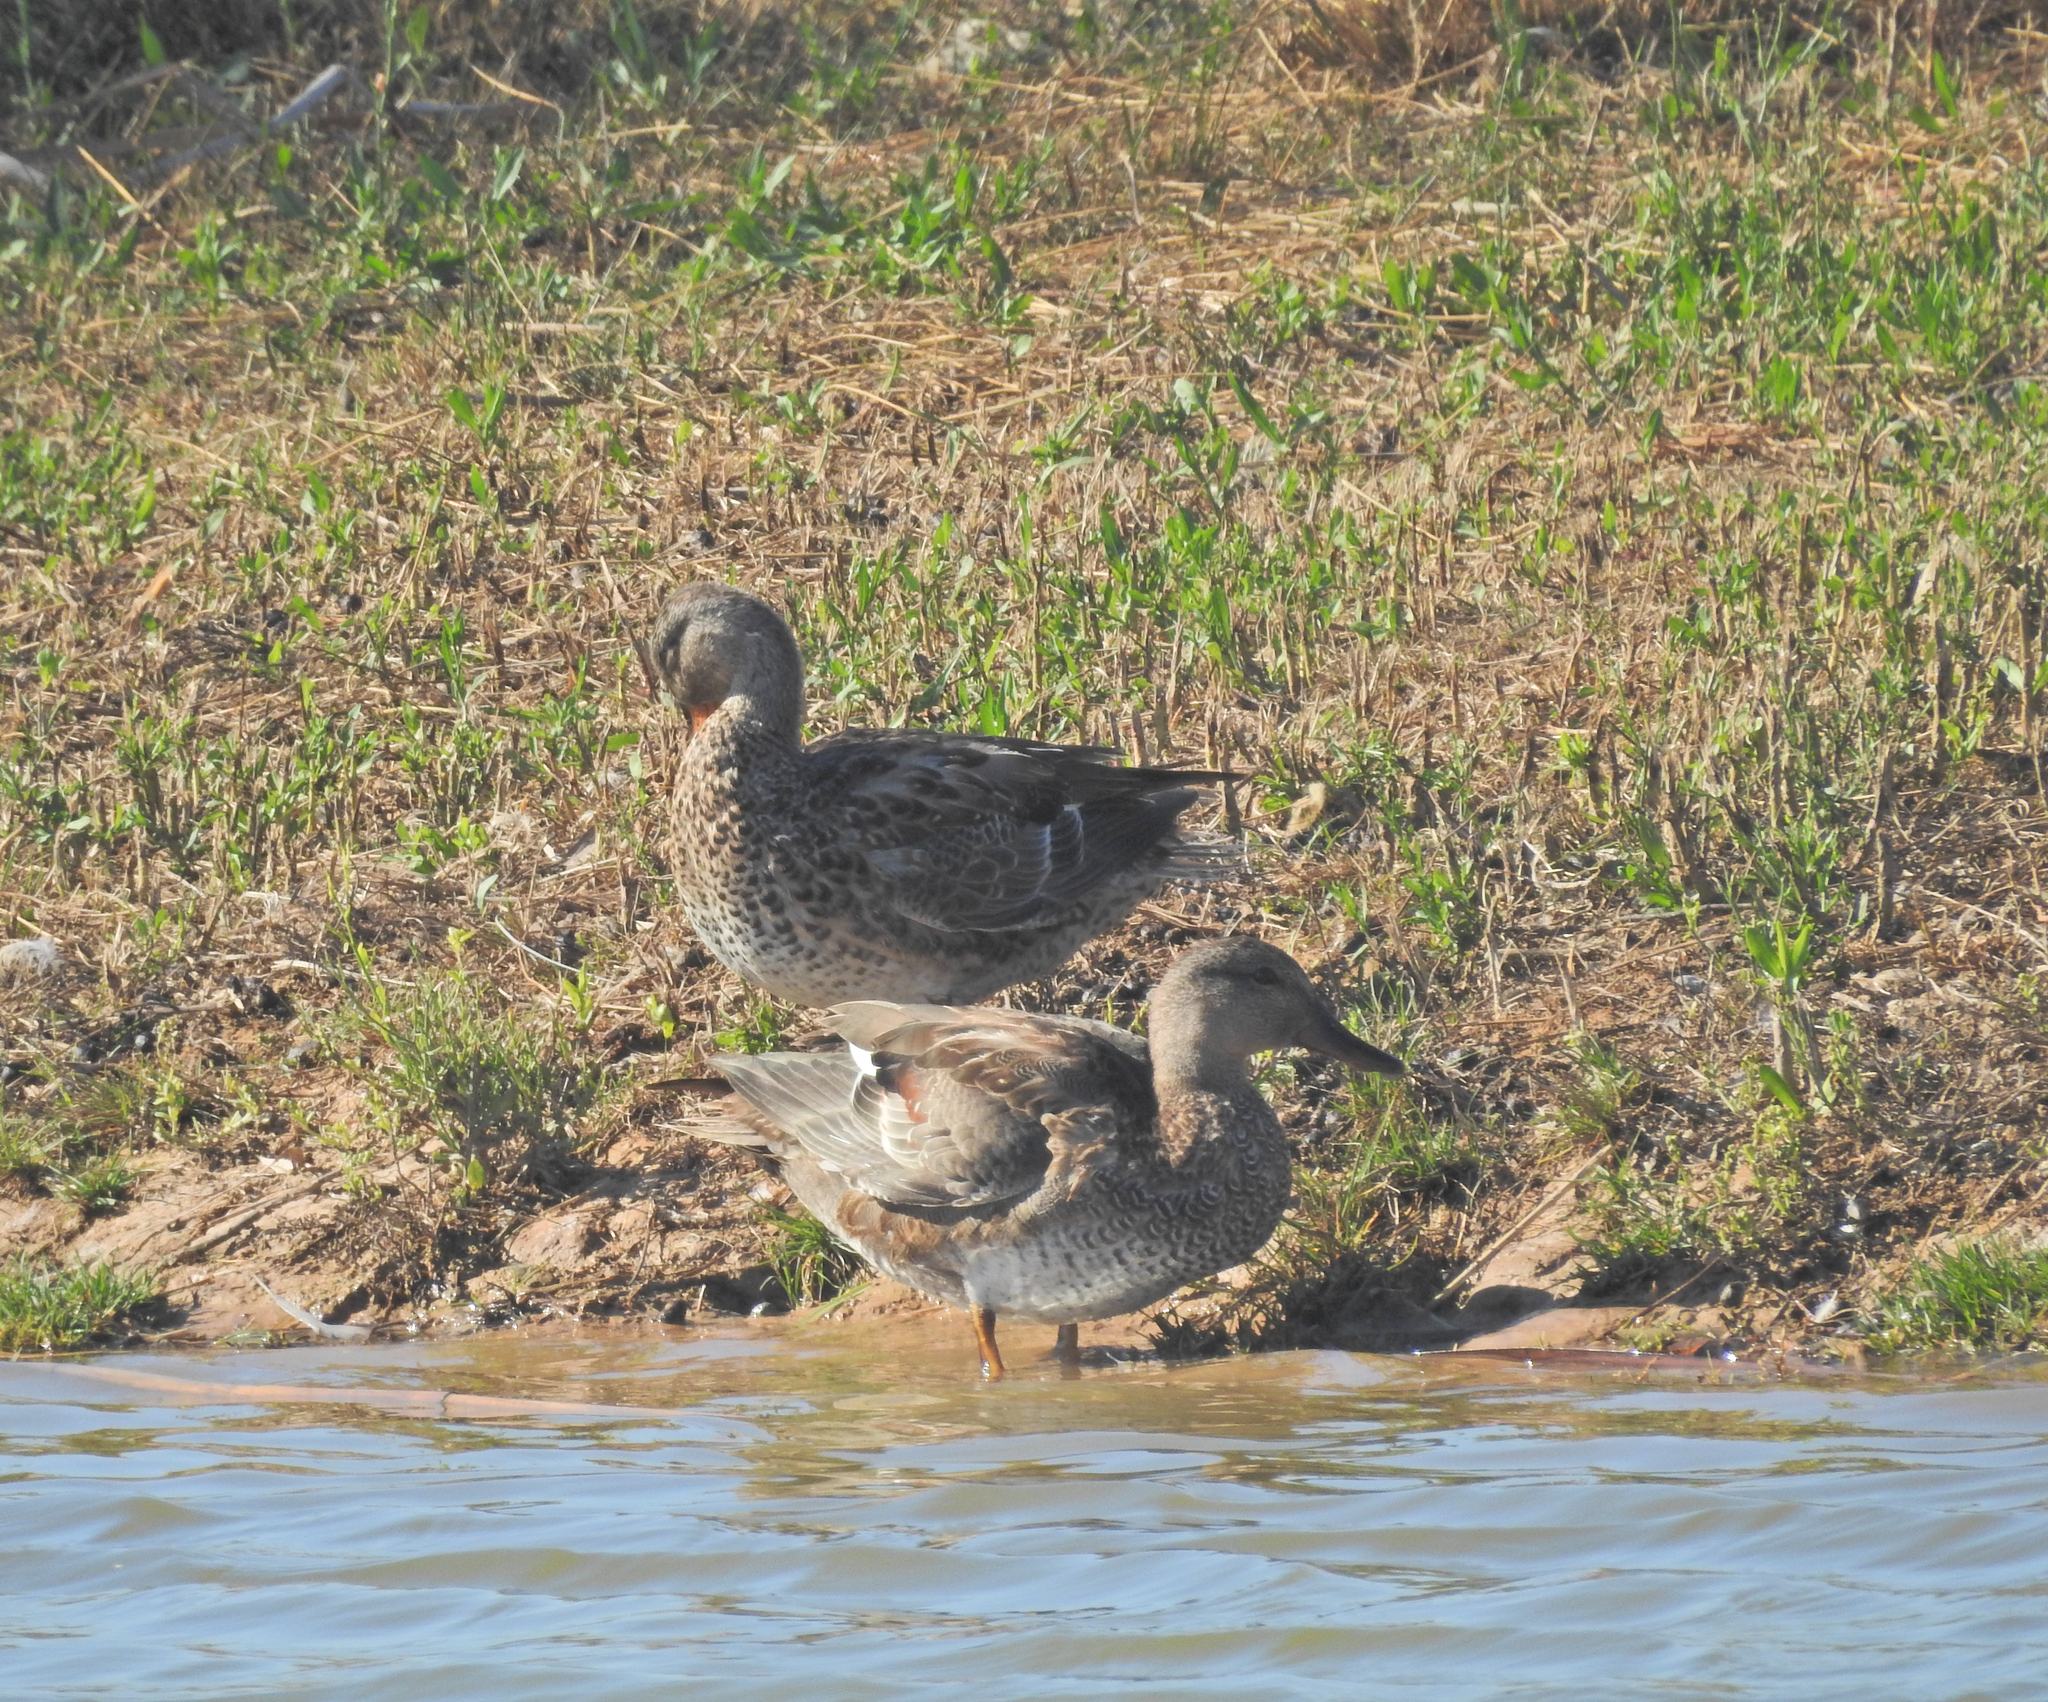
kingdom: Animalia
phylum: Chordata
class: Aves
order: Anseriformes
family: Anatidae
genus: Mareca
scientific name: Mareca strepera
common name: Gadwall
